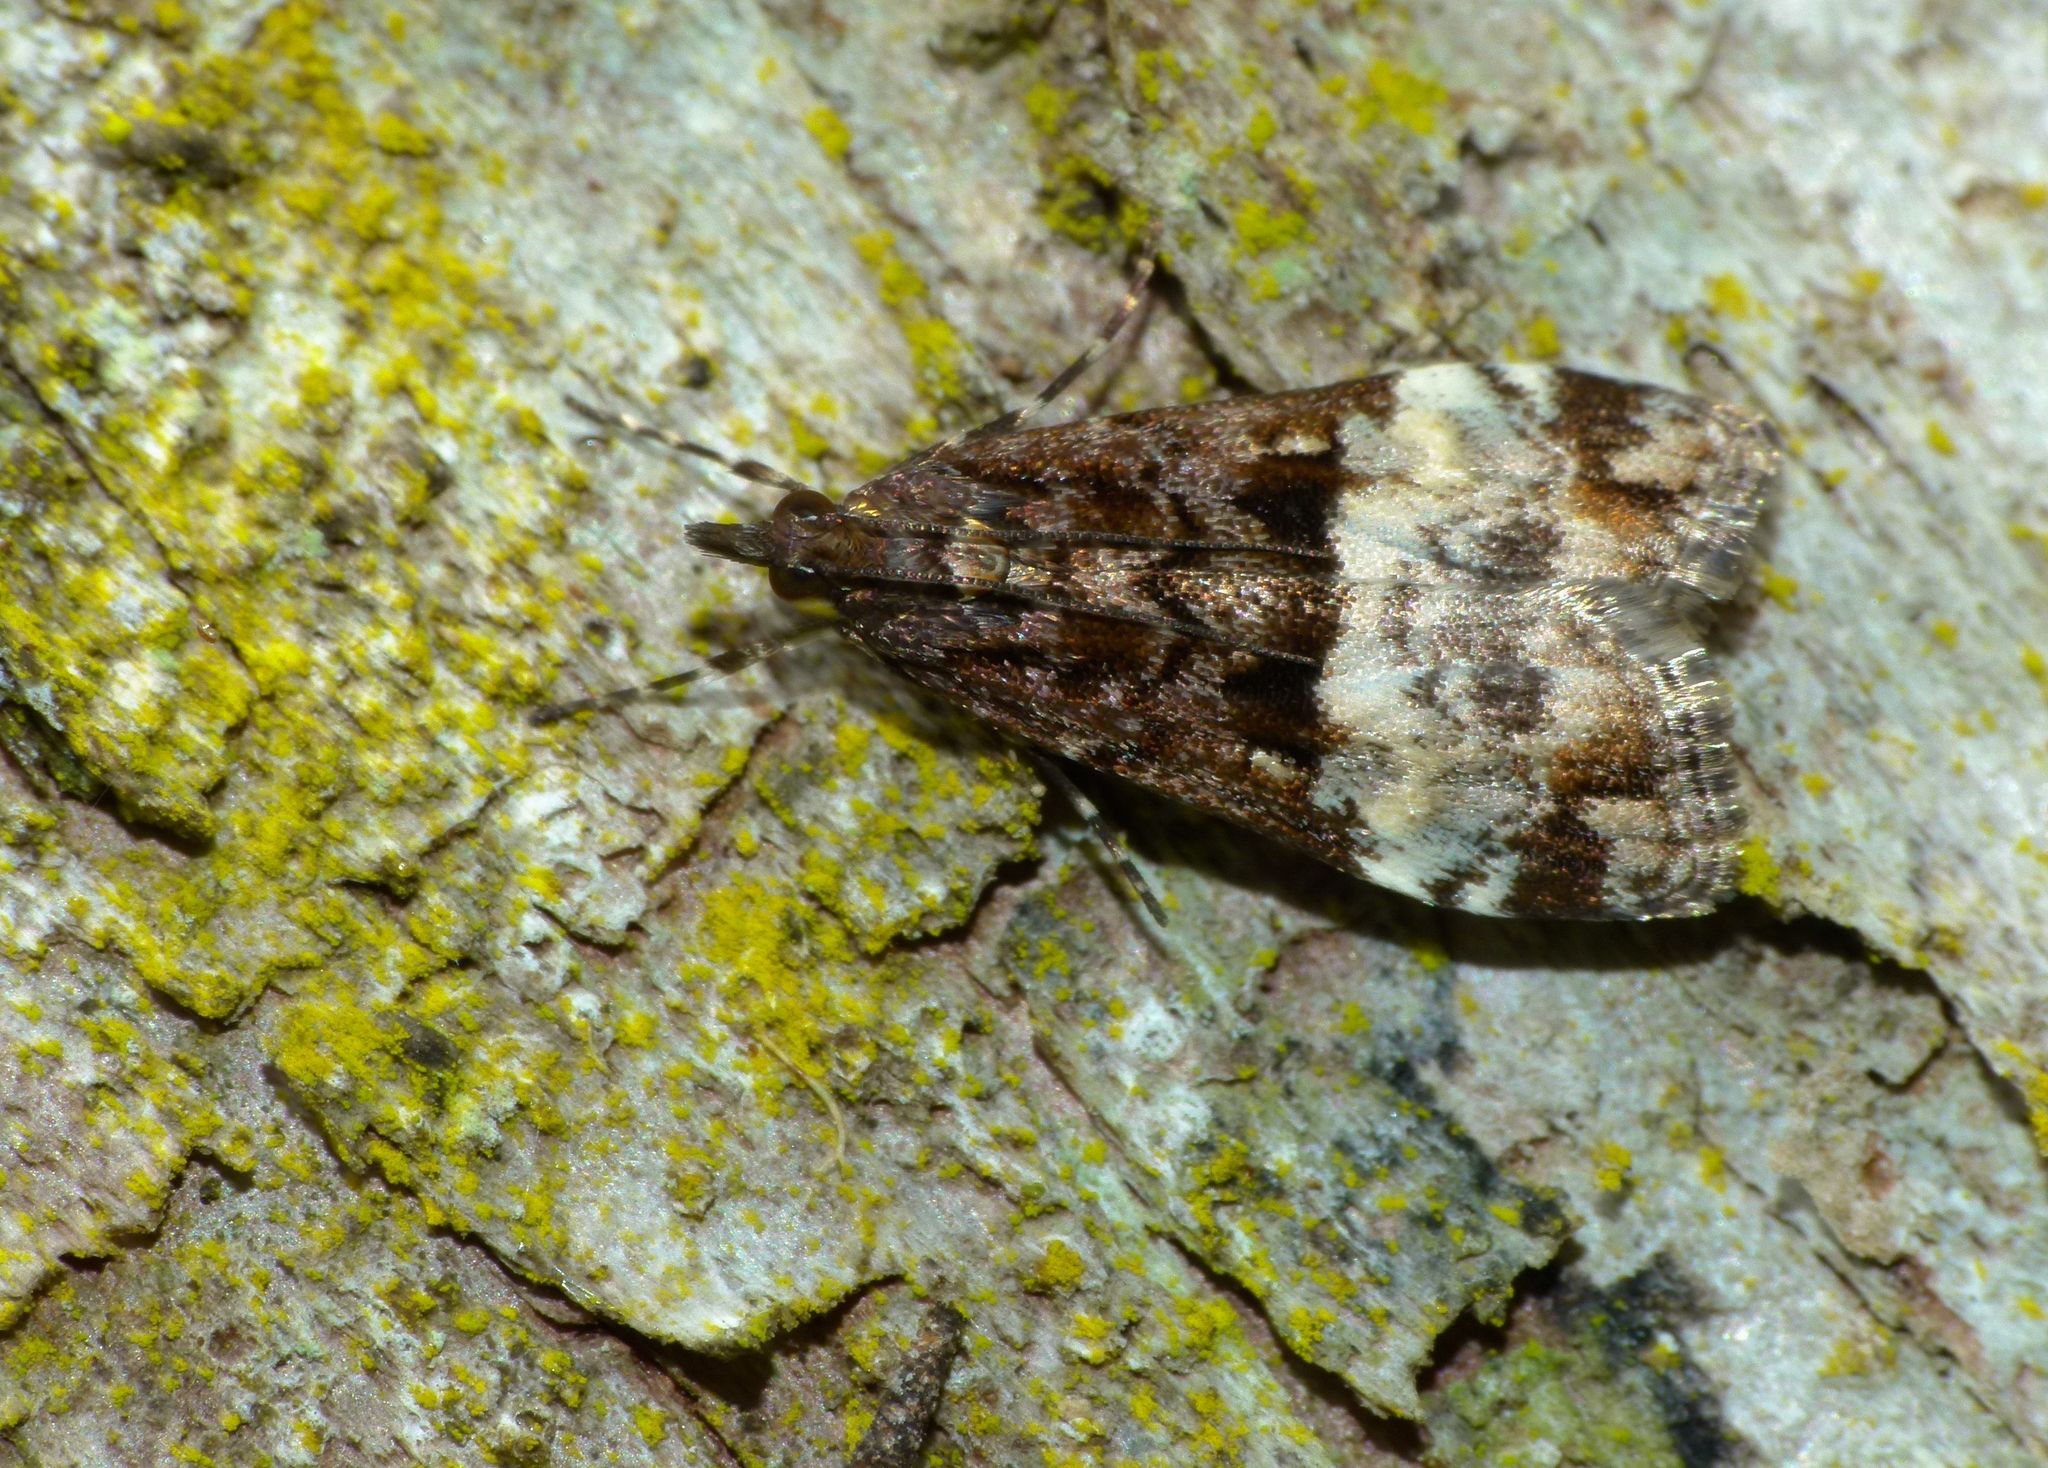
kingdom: Animalia
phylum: Arthropoda
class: Insecta
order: Lepidoptera
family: Crambidae
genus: Scoparia
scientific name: Scoparia minusculalis
